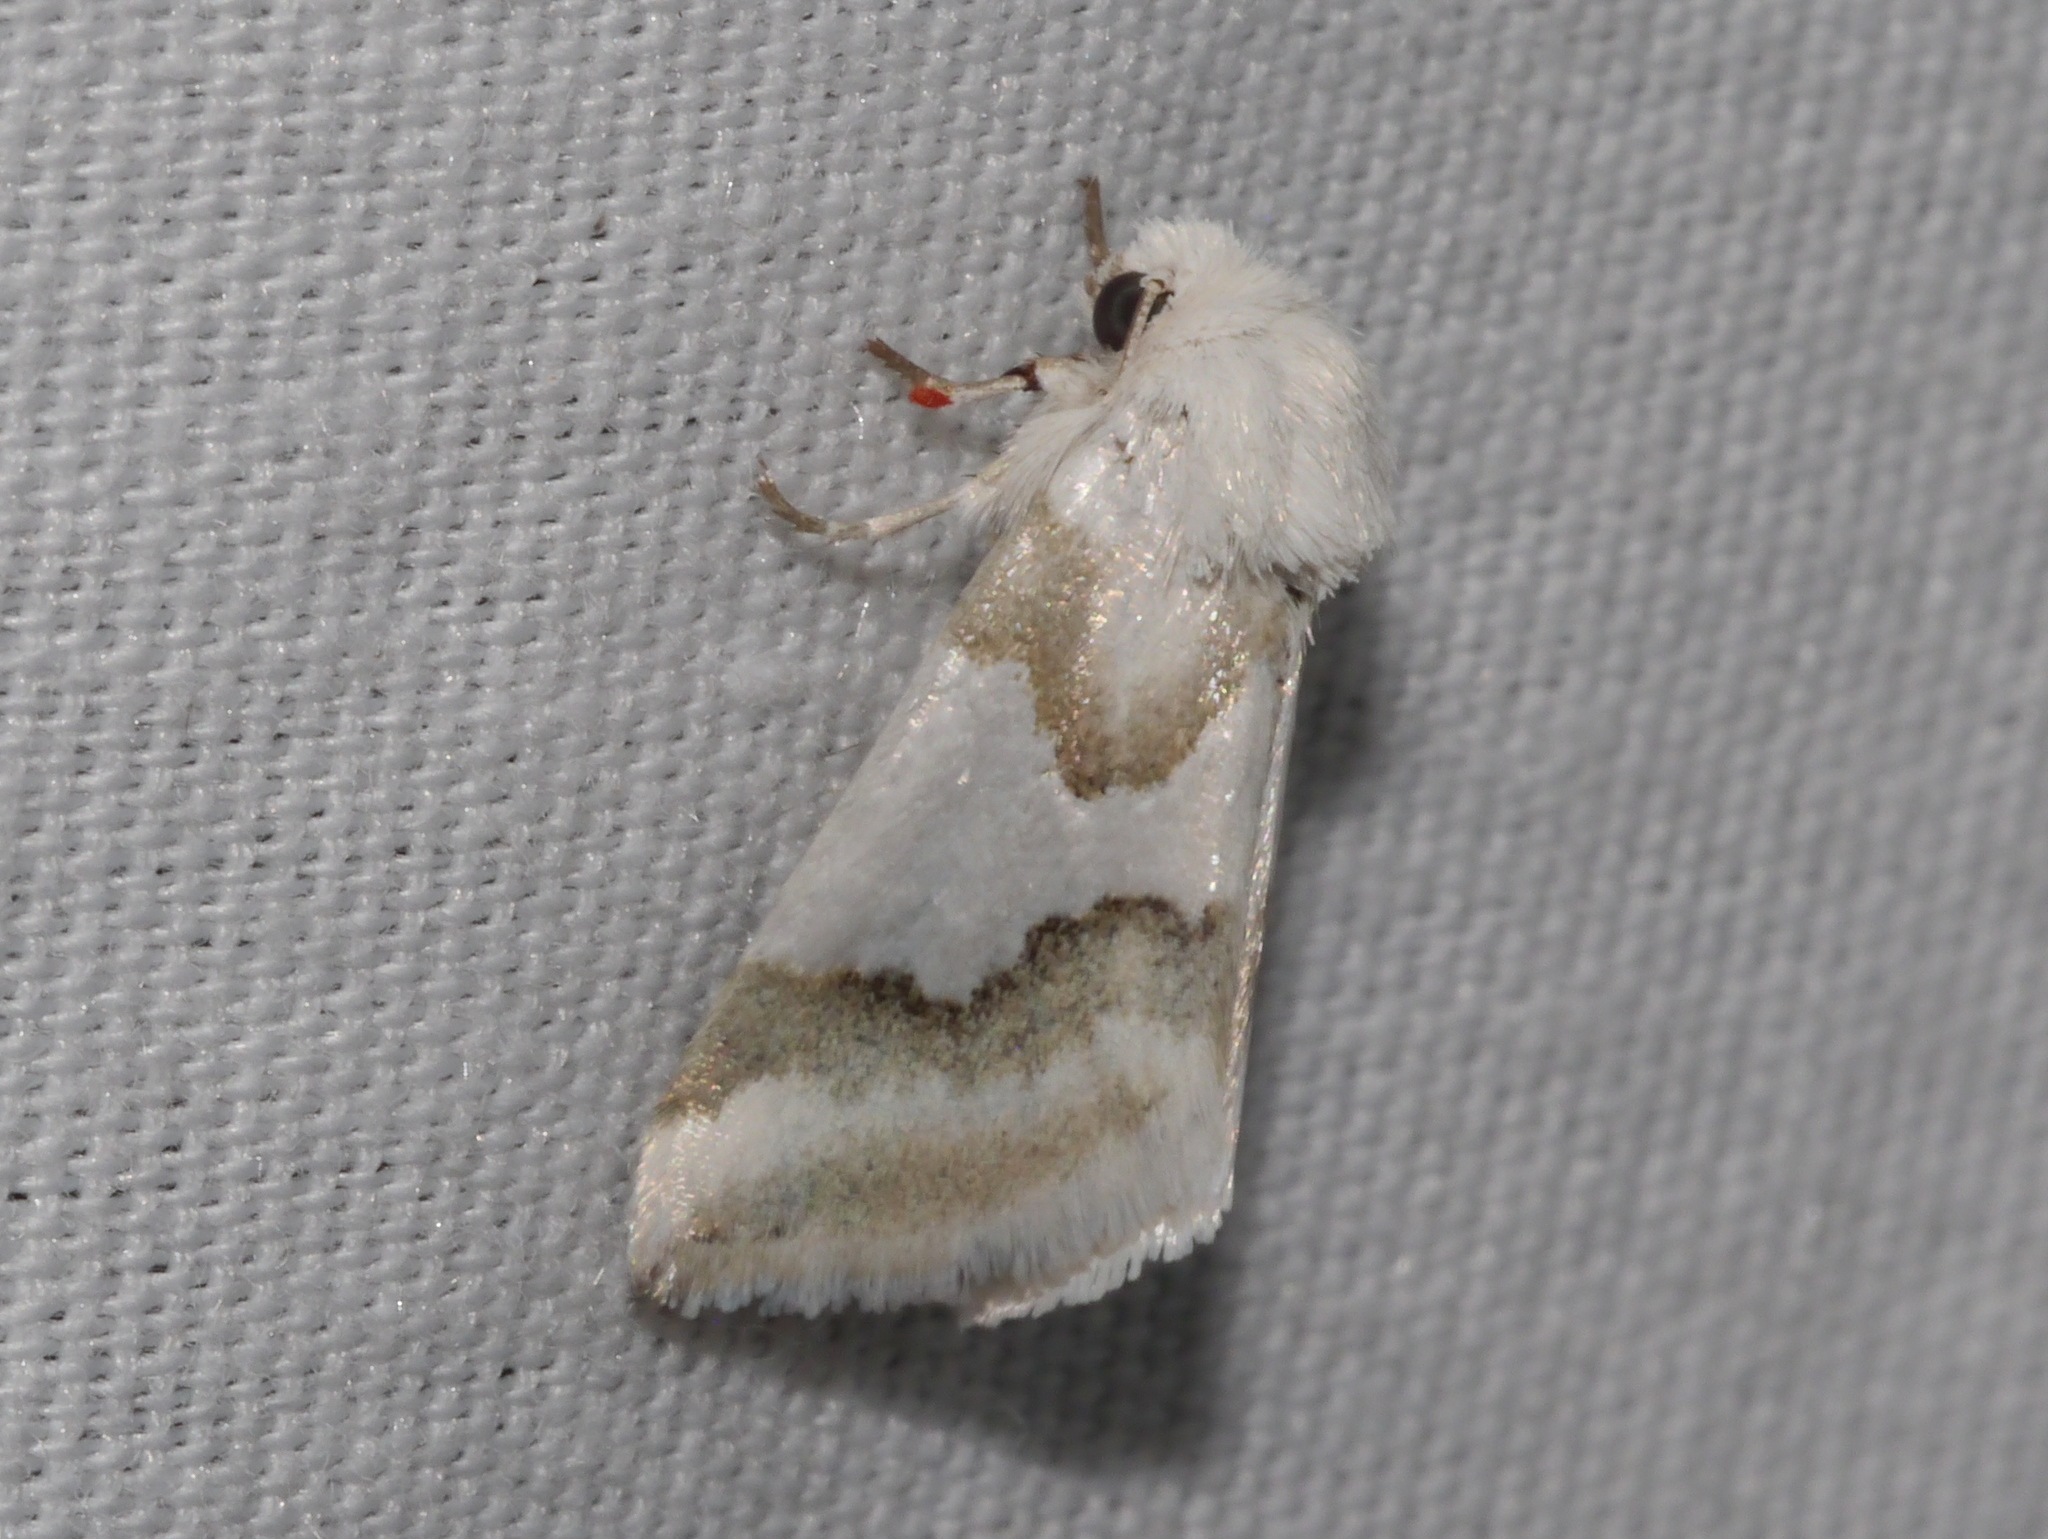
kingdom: Animalia
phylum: Arthropoda
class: Insecta
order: Lepidoptera
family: Noctuidae
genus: Schinia
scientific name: Schinia hulstia
